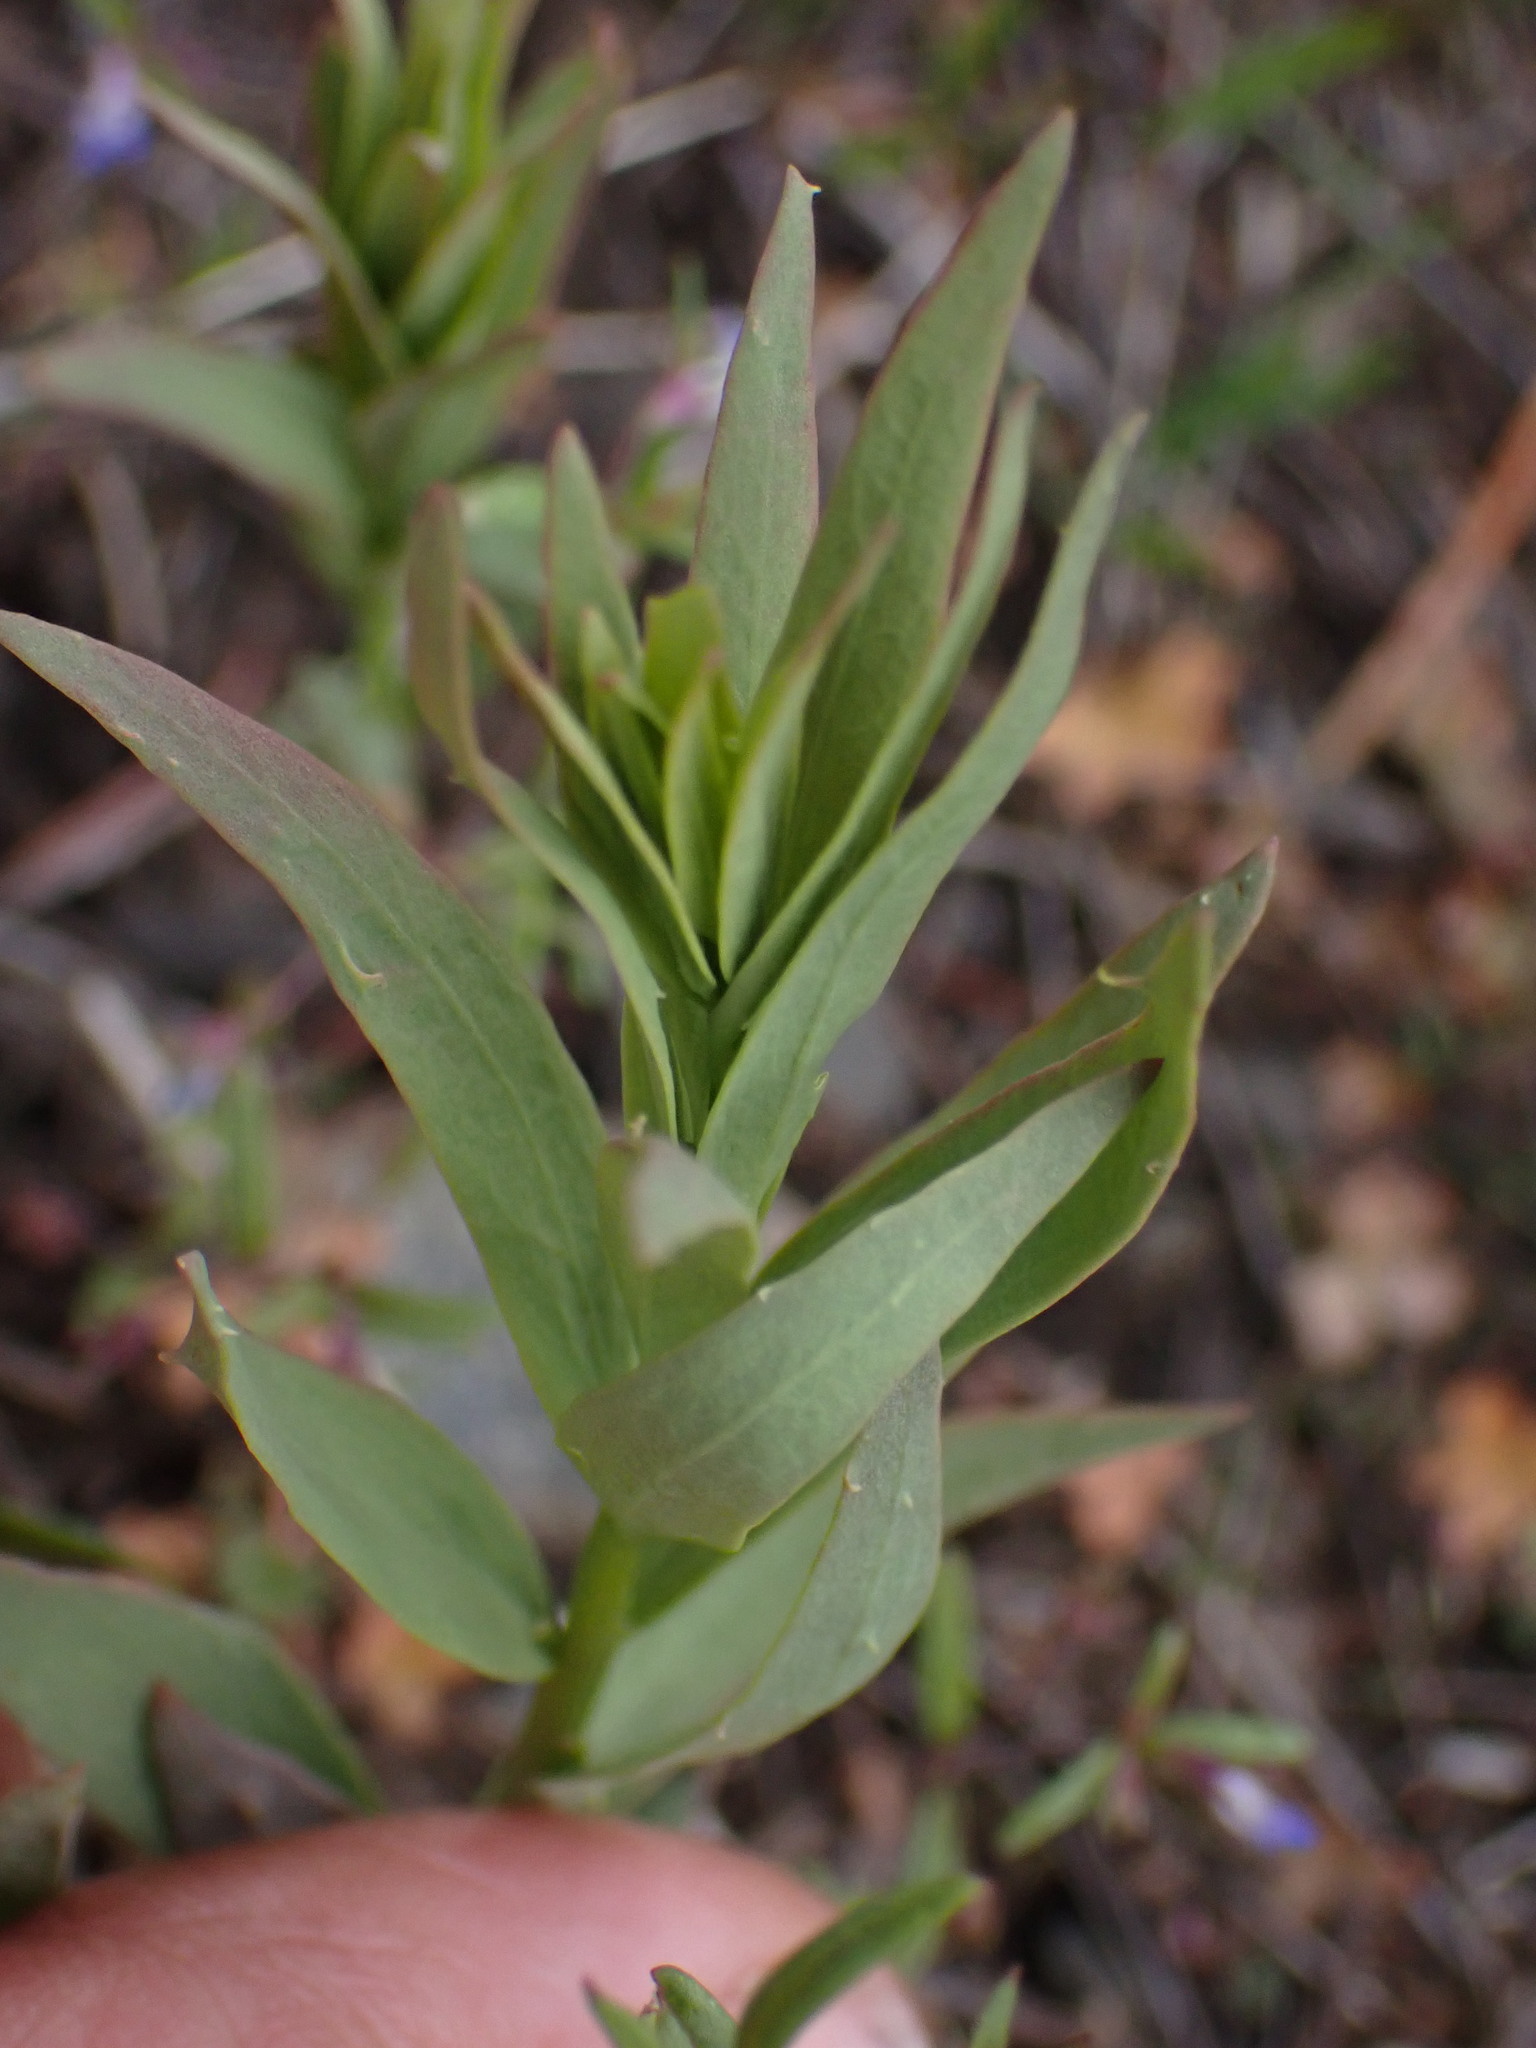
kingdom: Plantae
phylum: Tracheophyta
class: Magnoliopsida
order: Santalales
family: Comandraceae
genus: Comandra
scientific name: Comandra umbellata
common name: Bastard toadflax
